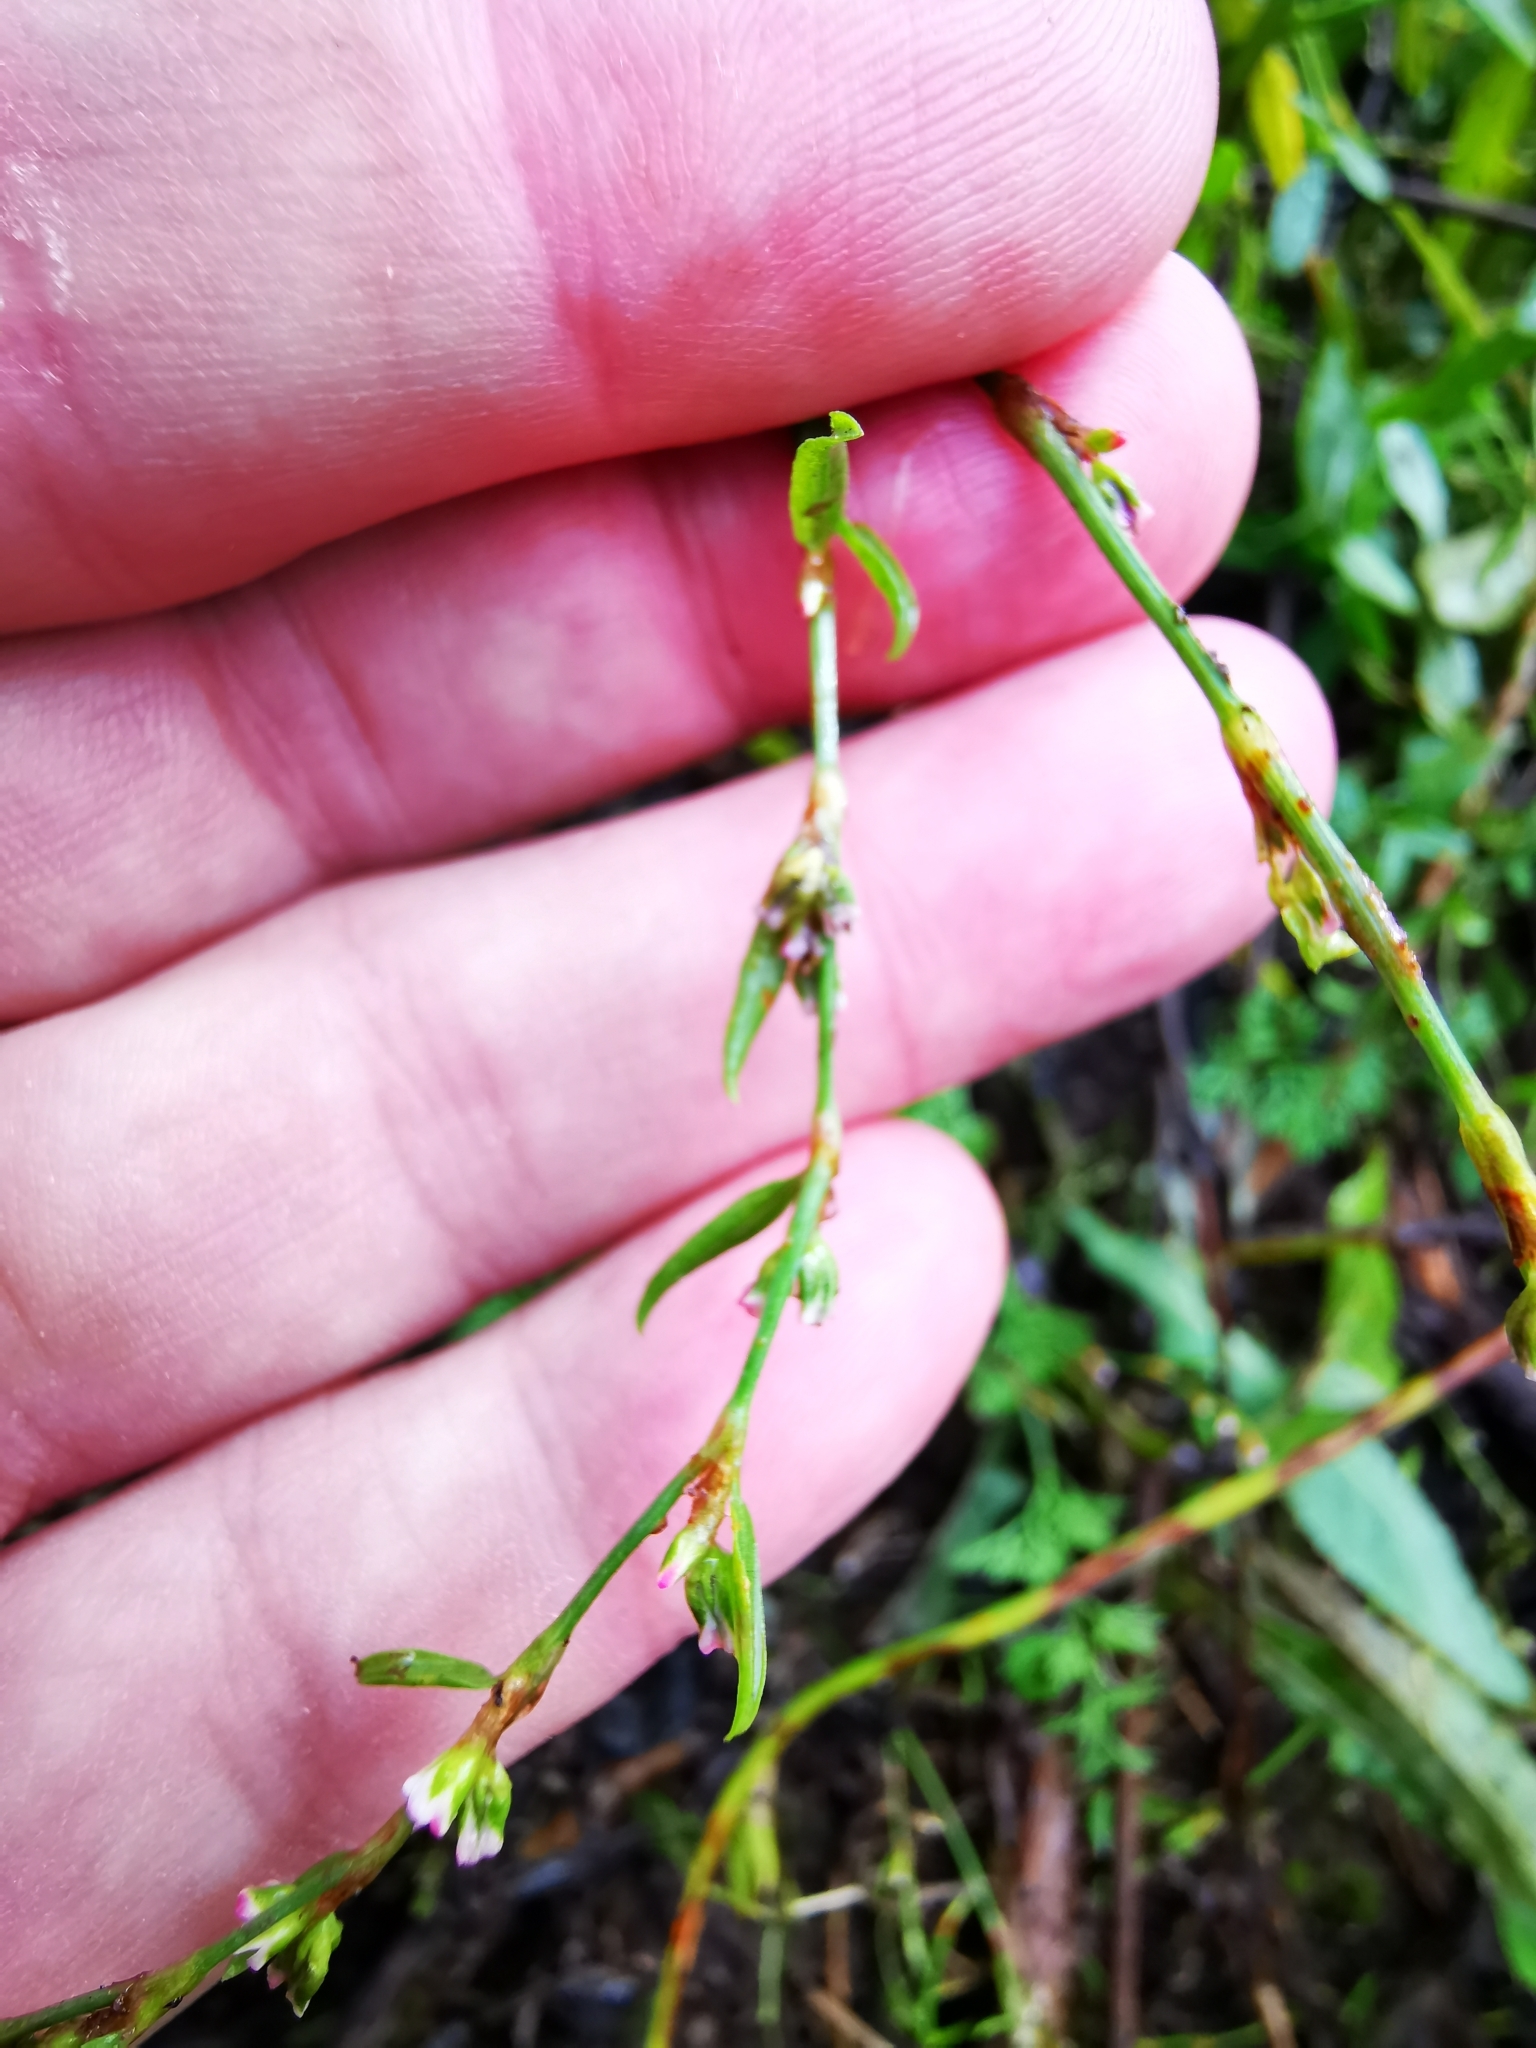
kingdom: Plantae
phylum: Tracheophyta
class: Magnoliopsida
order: Caryophyllales
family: Polygonaceae
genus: Polygonum
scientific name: Polygonum aviculare
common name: Prostrate knotweed
